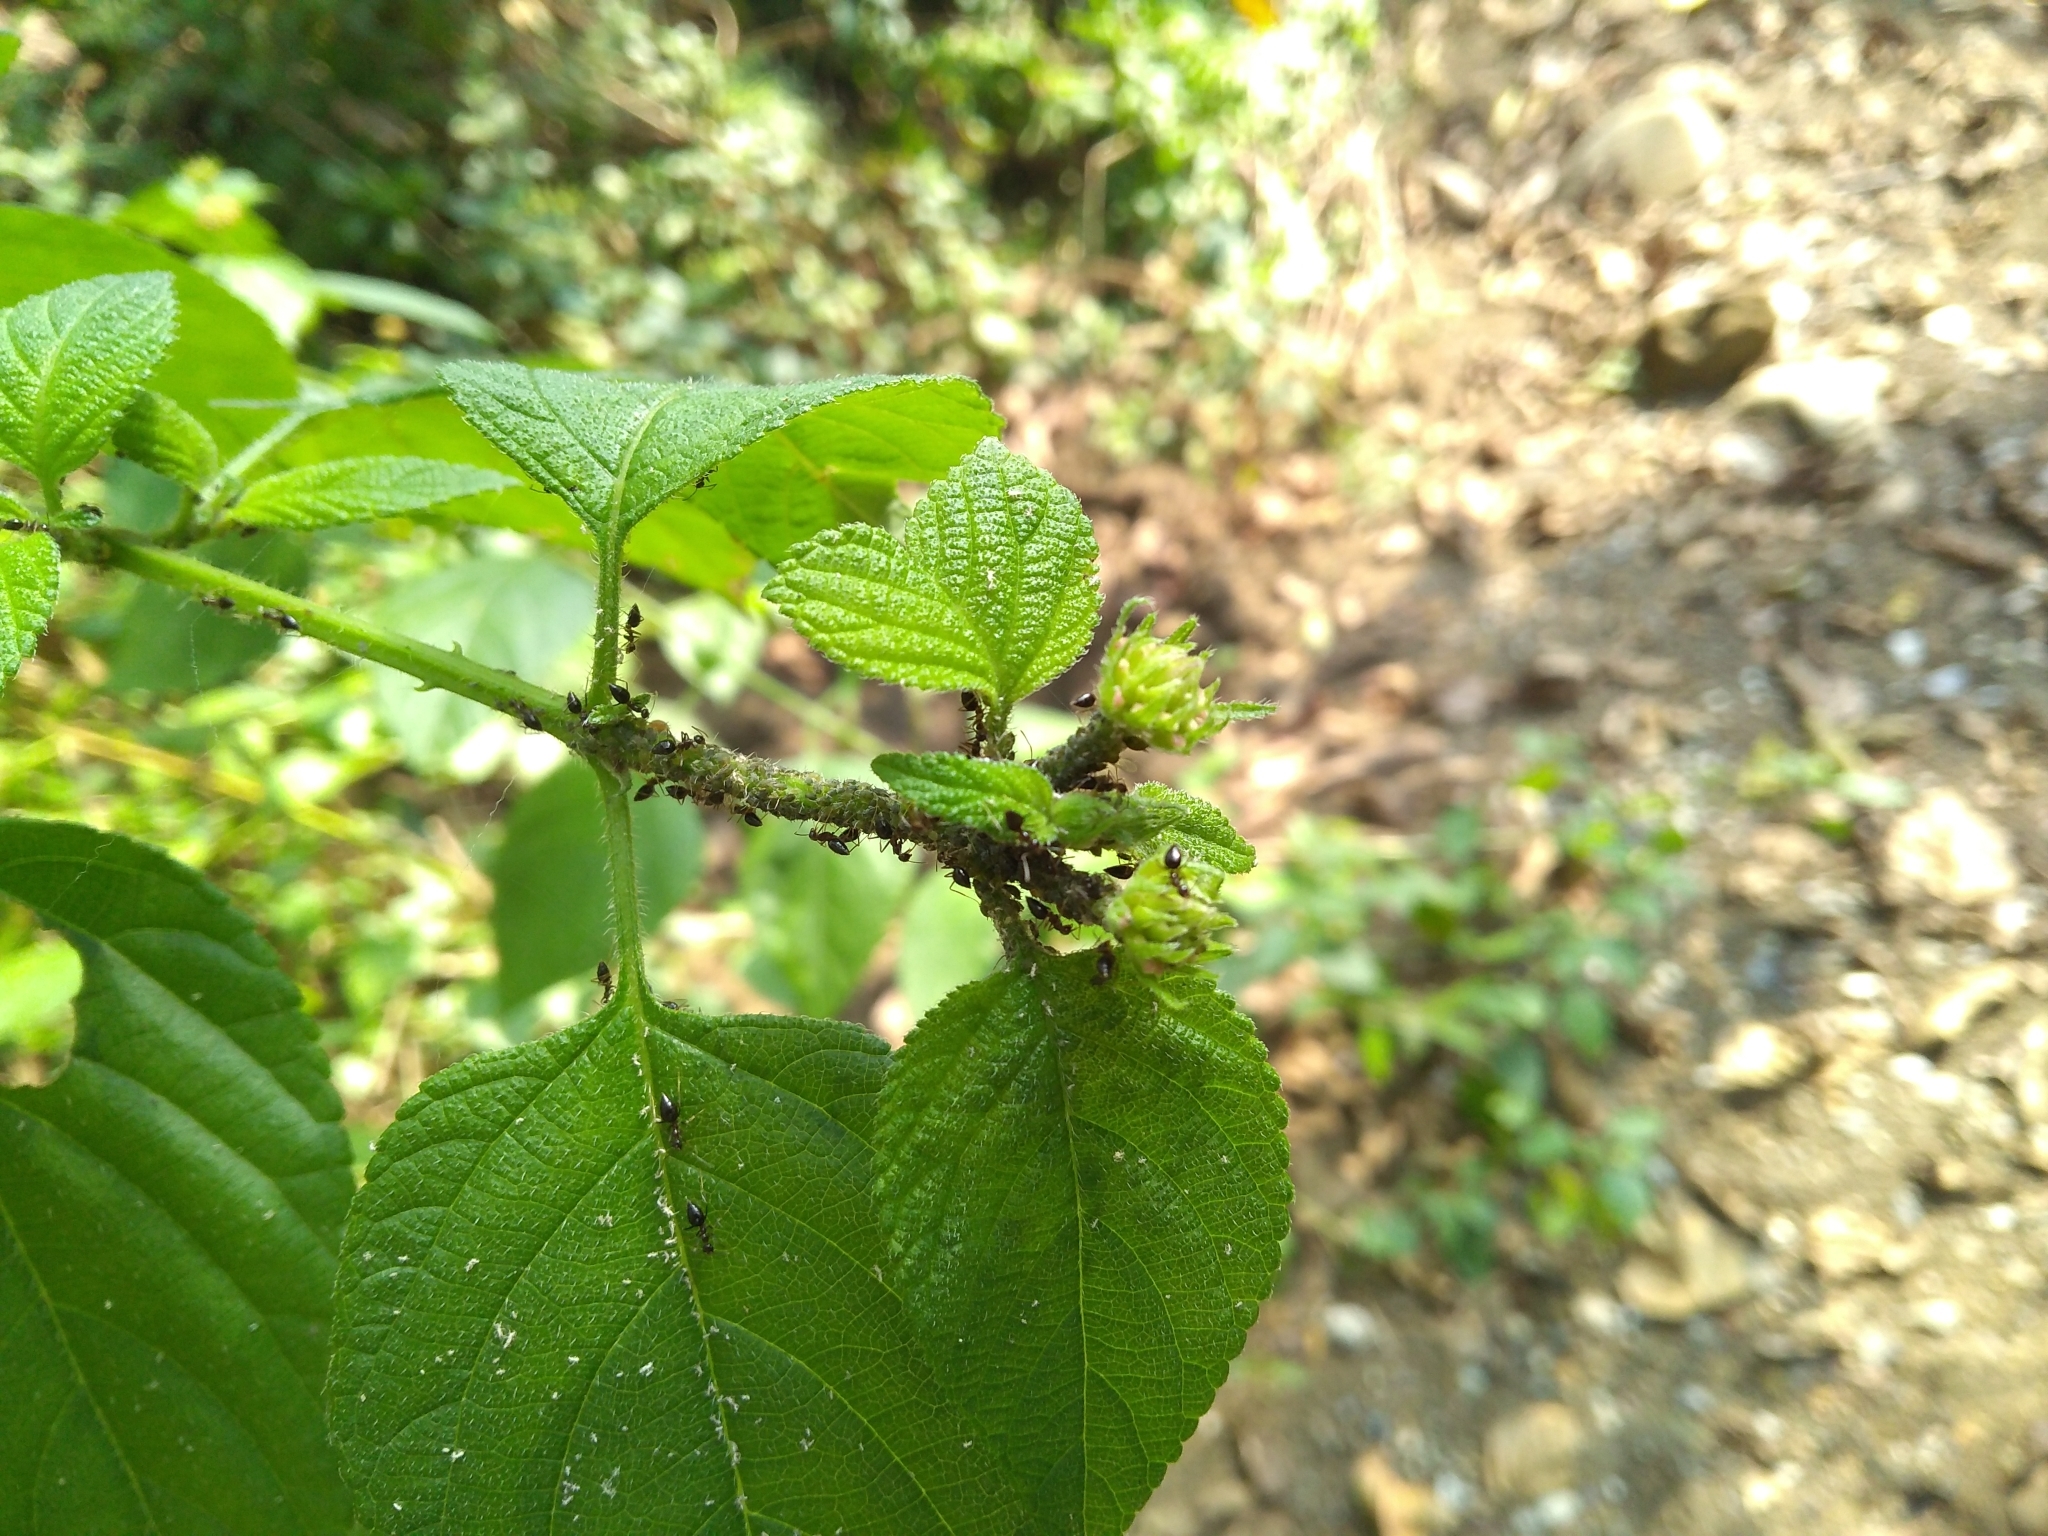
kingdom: Animalia
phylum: Arthropoda
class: Insecta
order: Hymenoptera
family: Formicidae
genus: Crematogaster
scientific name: Crematogaster rothneyi
